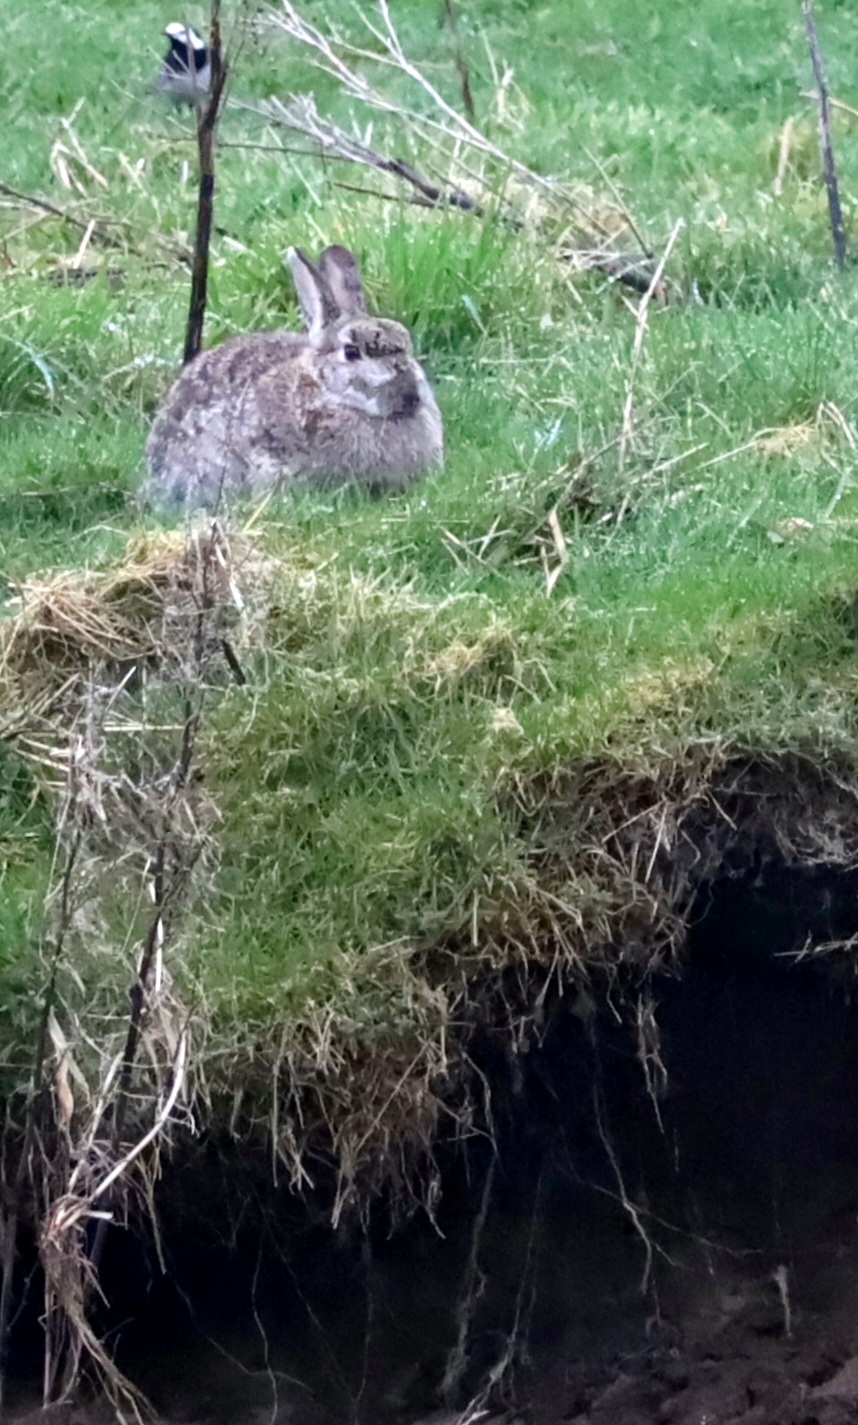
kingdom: Animalia
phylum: Chordata
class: Mammalia
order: Lagomorpha
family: Leporidae
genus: Oryctolagus
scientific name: Oryctolagus cuniculus
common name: European rabbit
